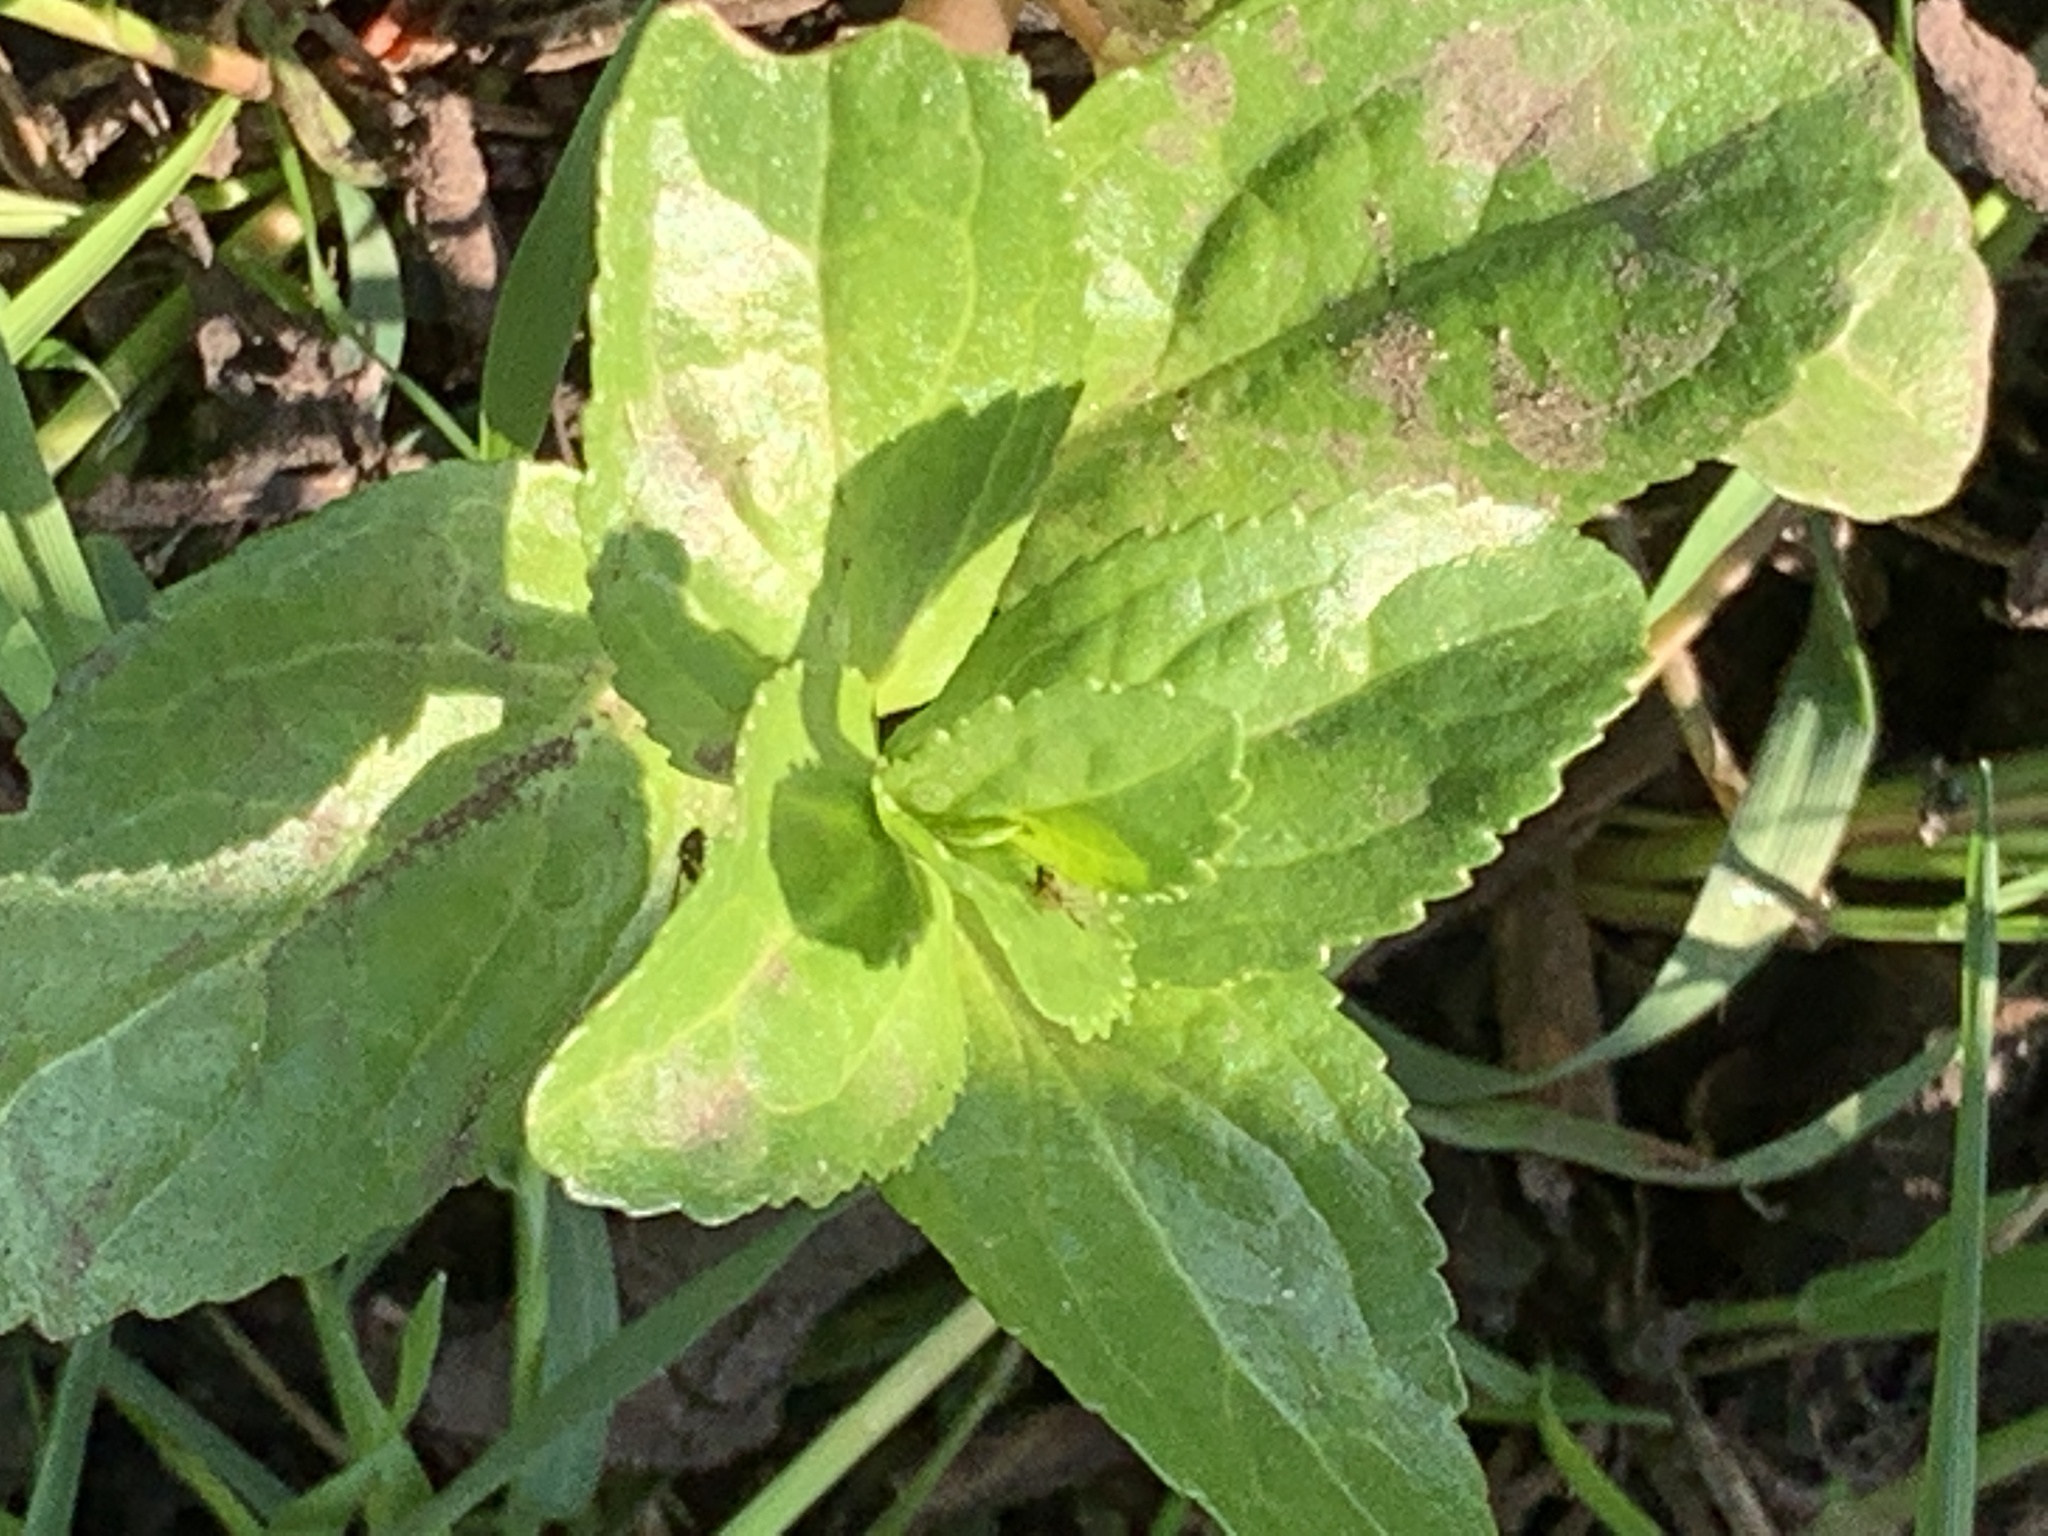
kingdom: Plantae
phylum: Tracheophyta
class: Magnoliopsida
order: Lamiales
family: Plantaginaceae
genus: Veronica
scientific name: Veronica beccabunga
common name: Brooklime
